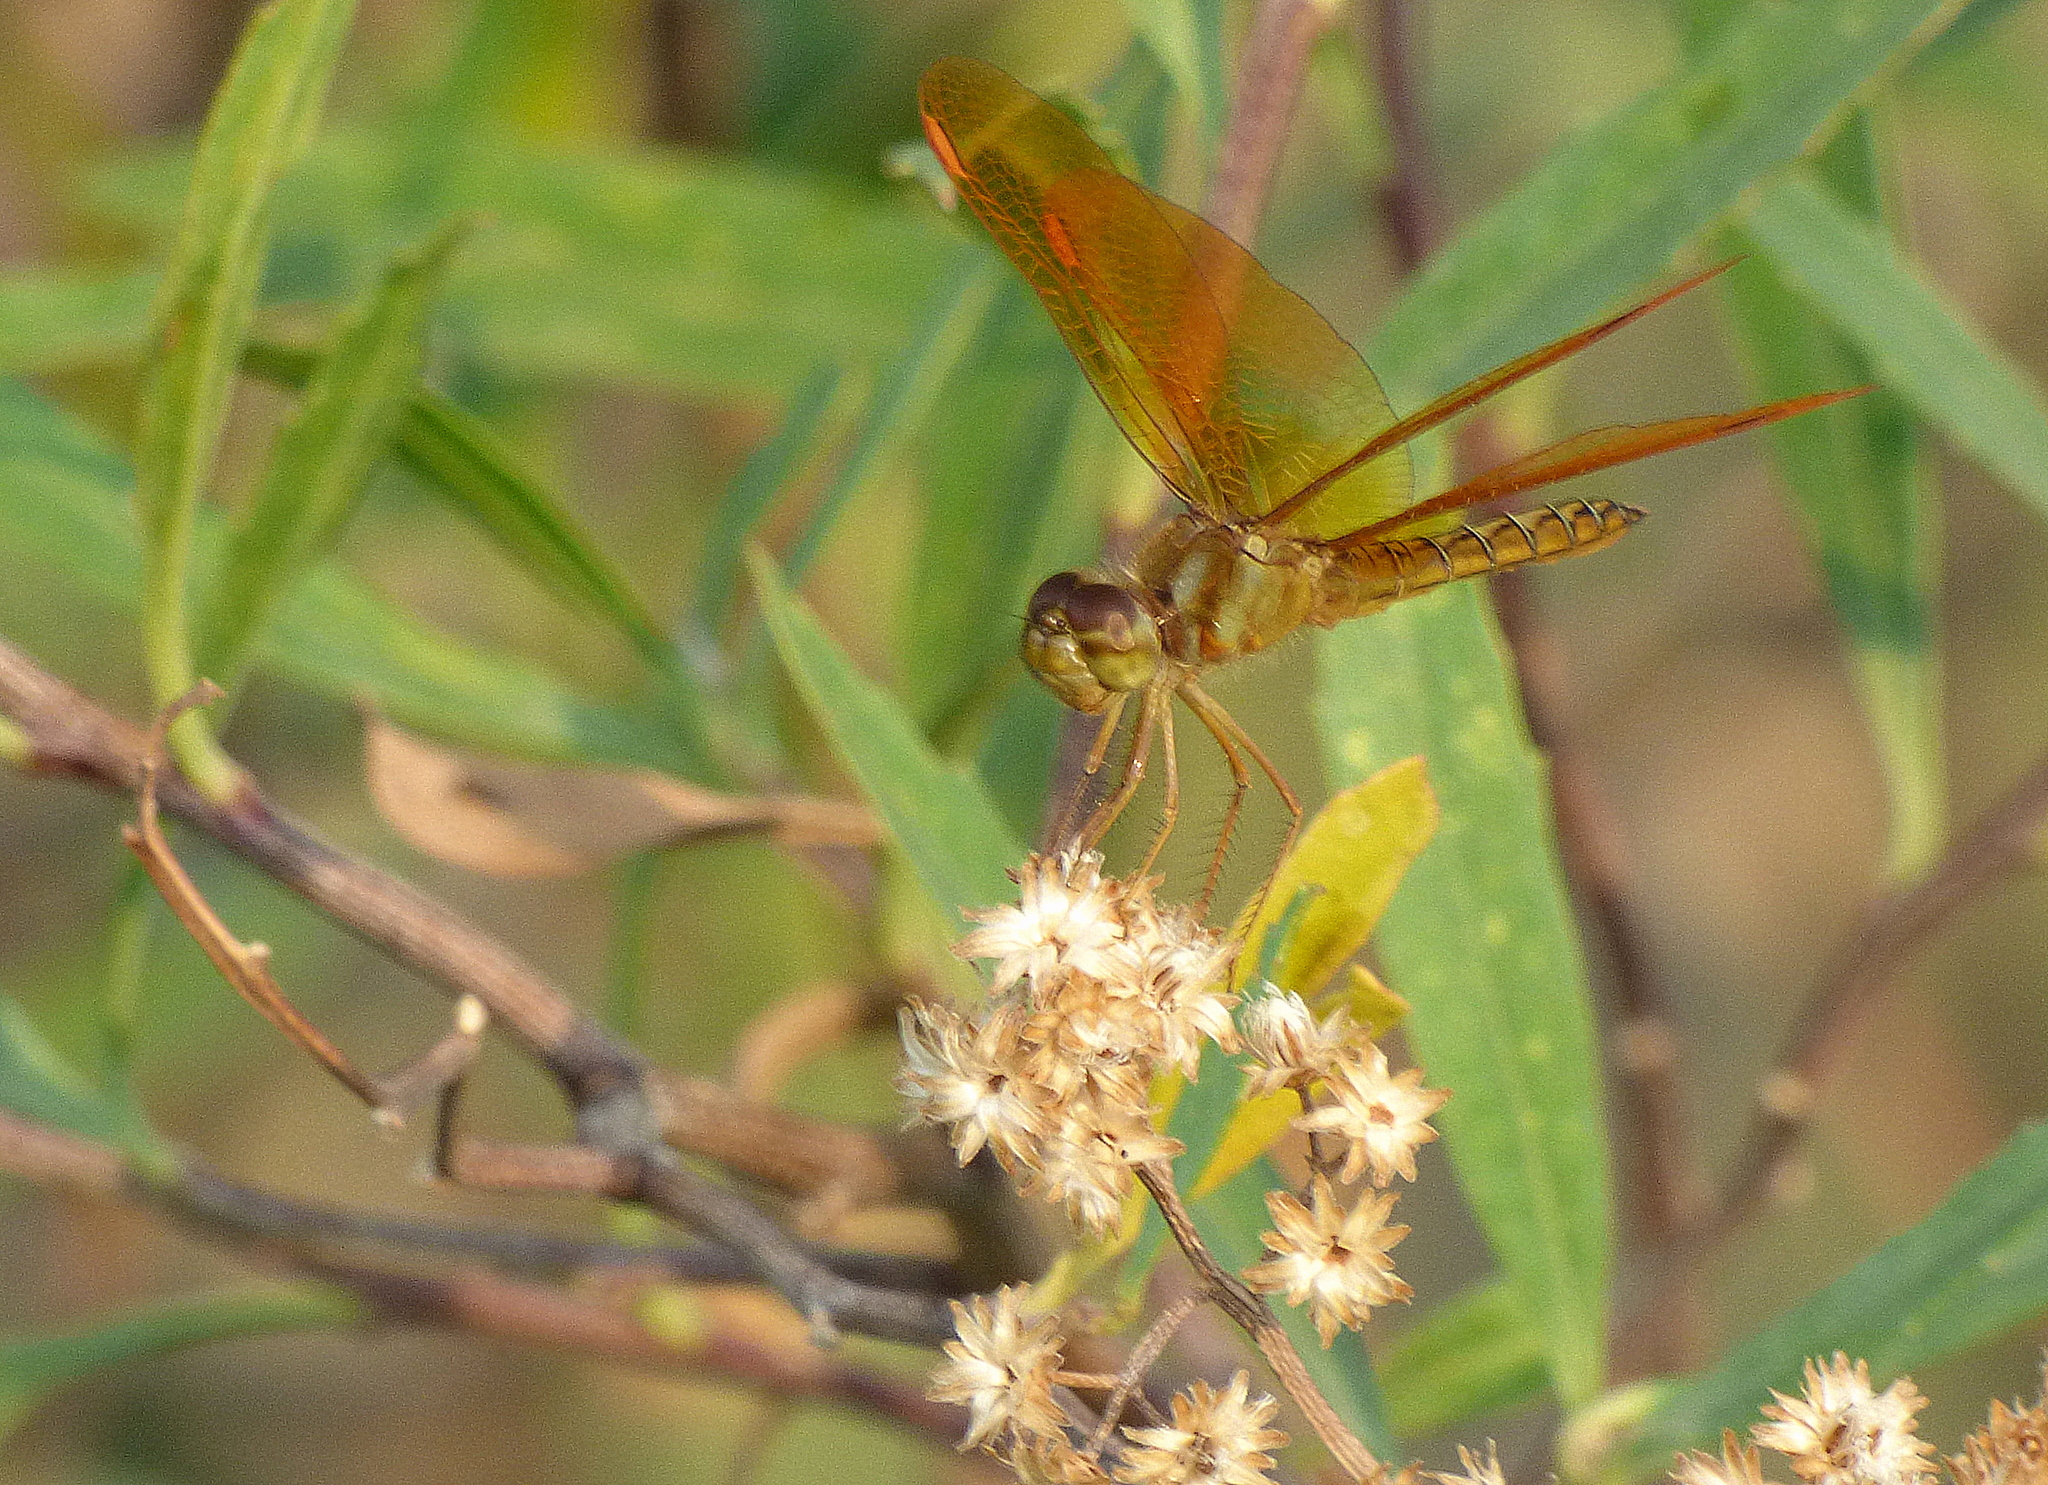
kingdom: Animalia
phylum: Arthropoda
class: Insecta
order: Odonata
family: Libellulidae
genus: Perithemis
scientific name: Perithemis tenera
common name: Eastern amberwing
